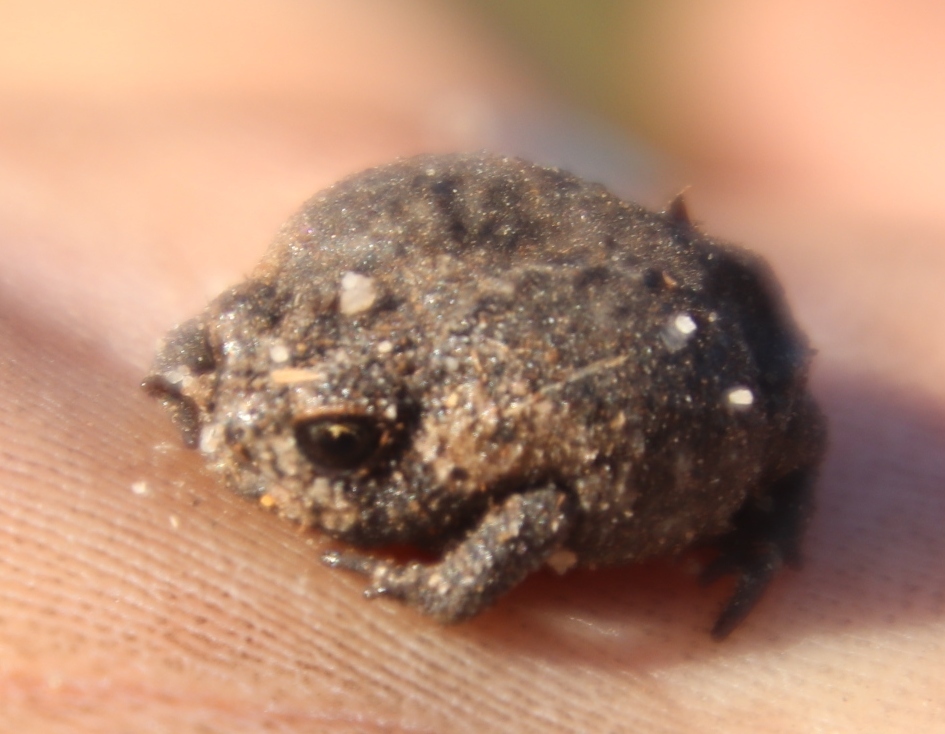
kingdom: Animalia
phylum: Chordata
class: Amphibia
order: Anura
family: Brevicipitidae
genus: Breviceps
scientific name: Breviceps montanus
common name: Mountain rain frog
